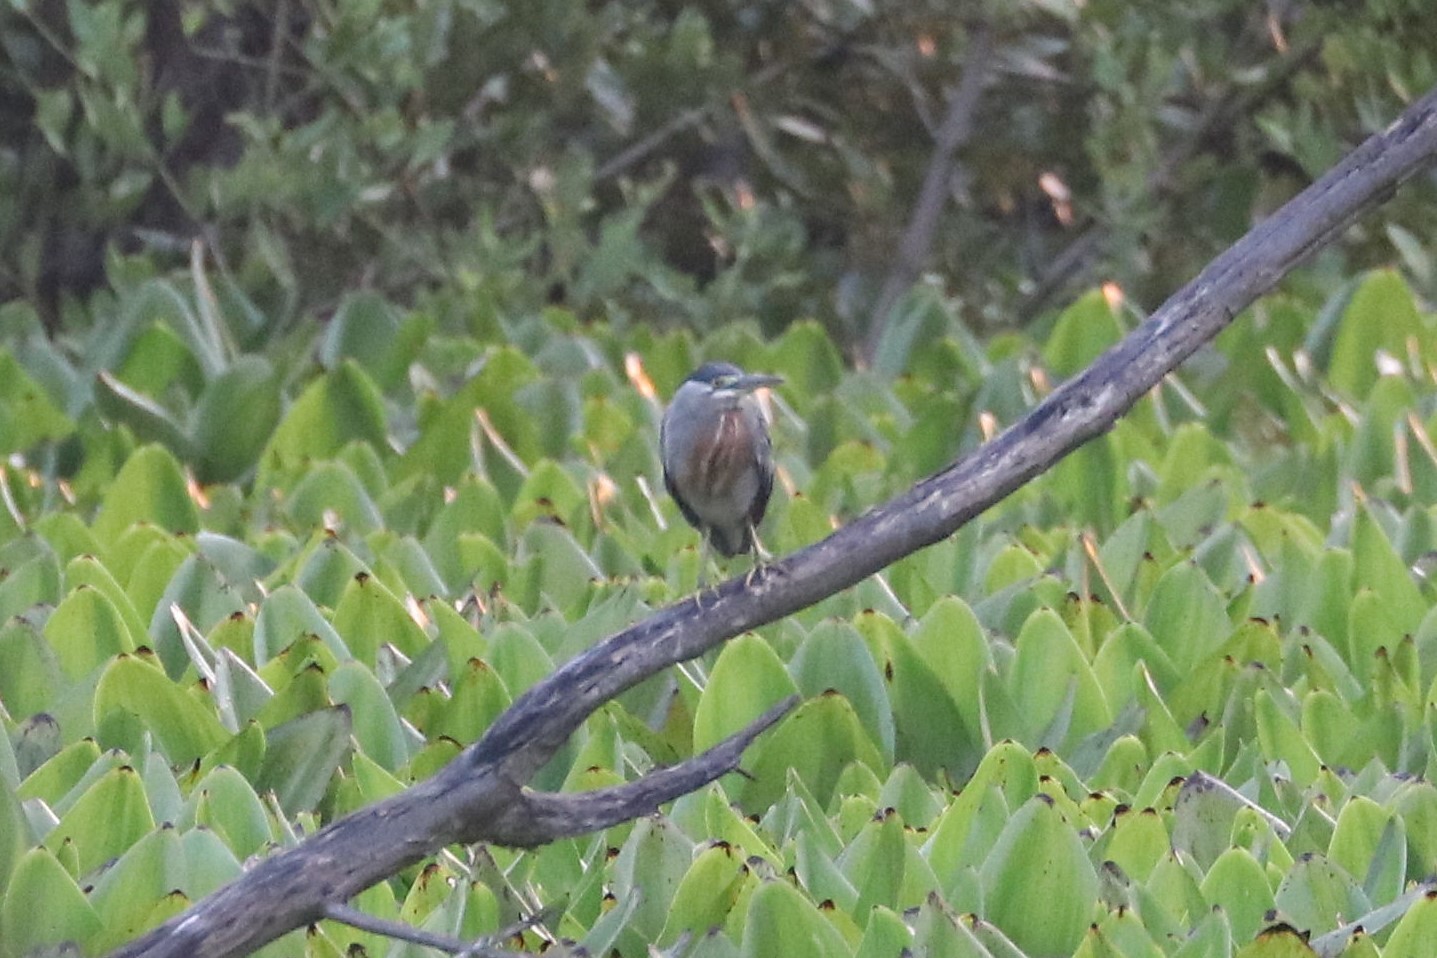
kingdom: Animalia
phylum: Chordata
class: Aves
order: Pelecaniformes
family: Ardeidae
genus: Butorides
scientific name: Butorides striata
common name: Striated heron
